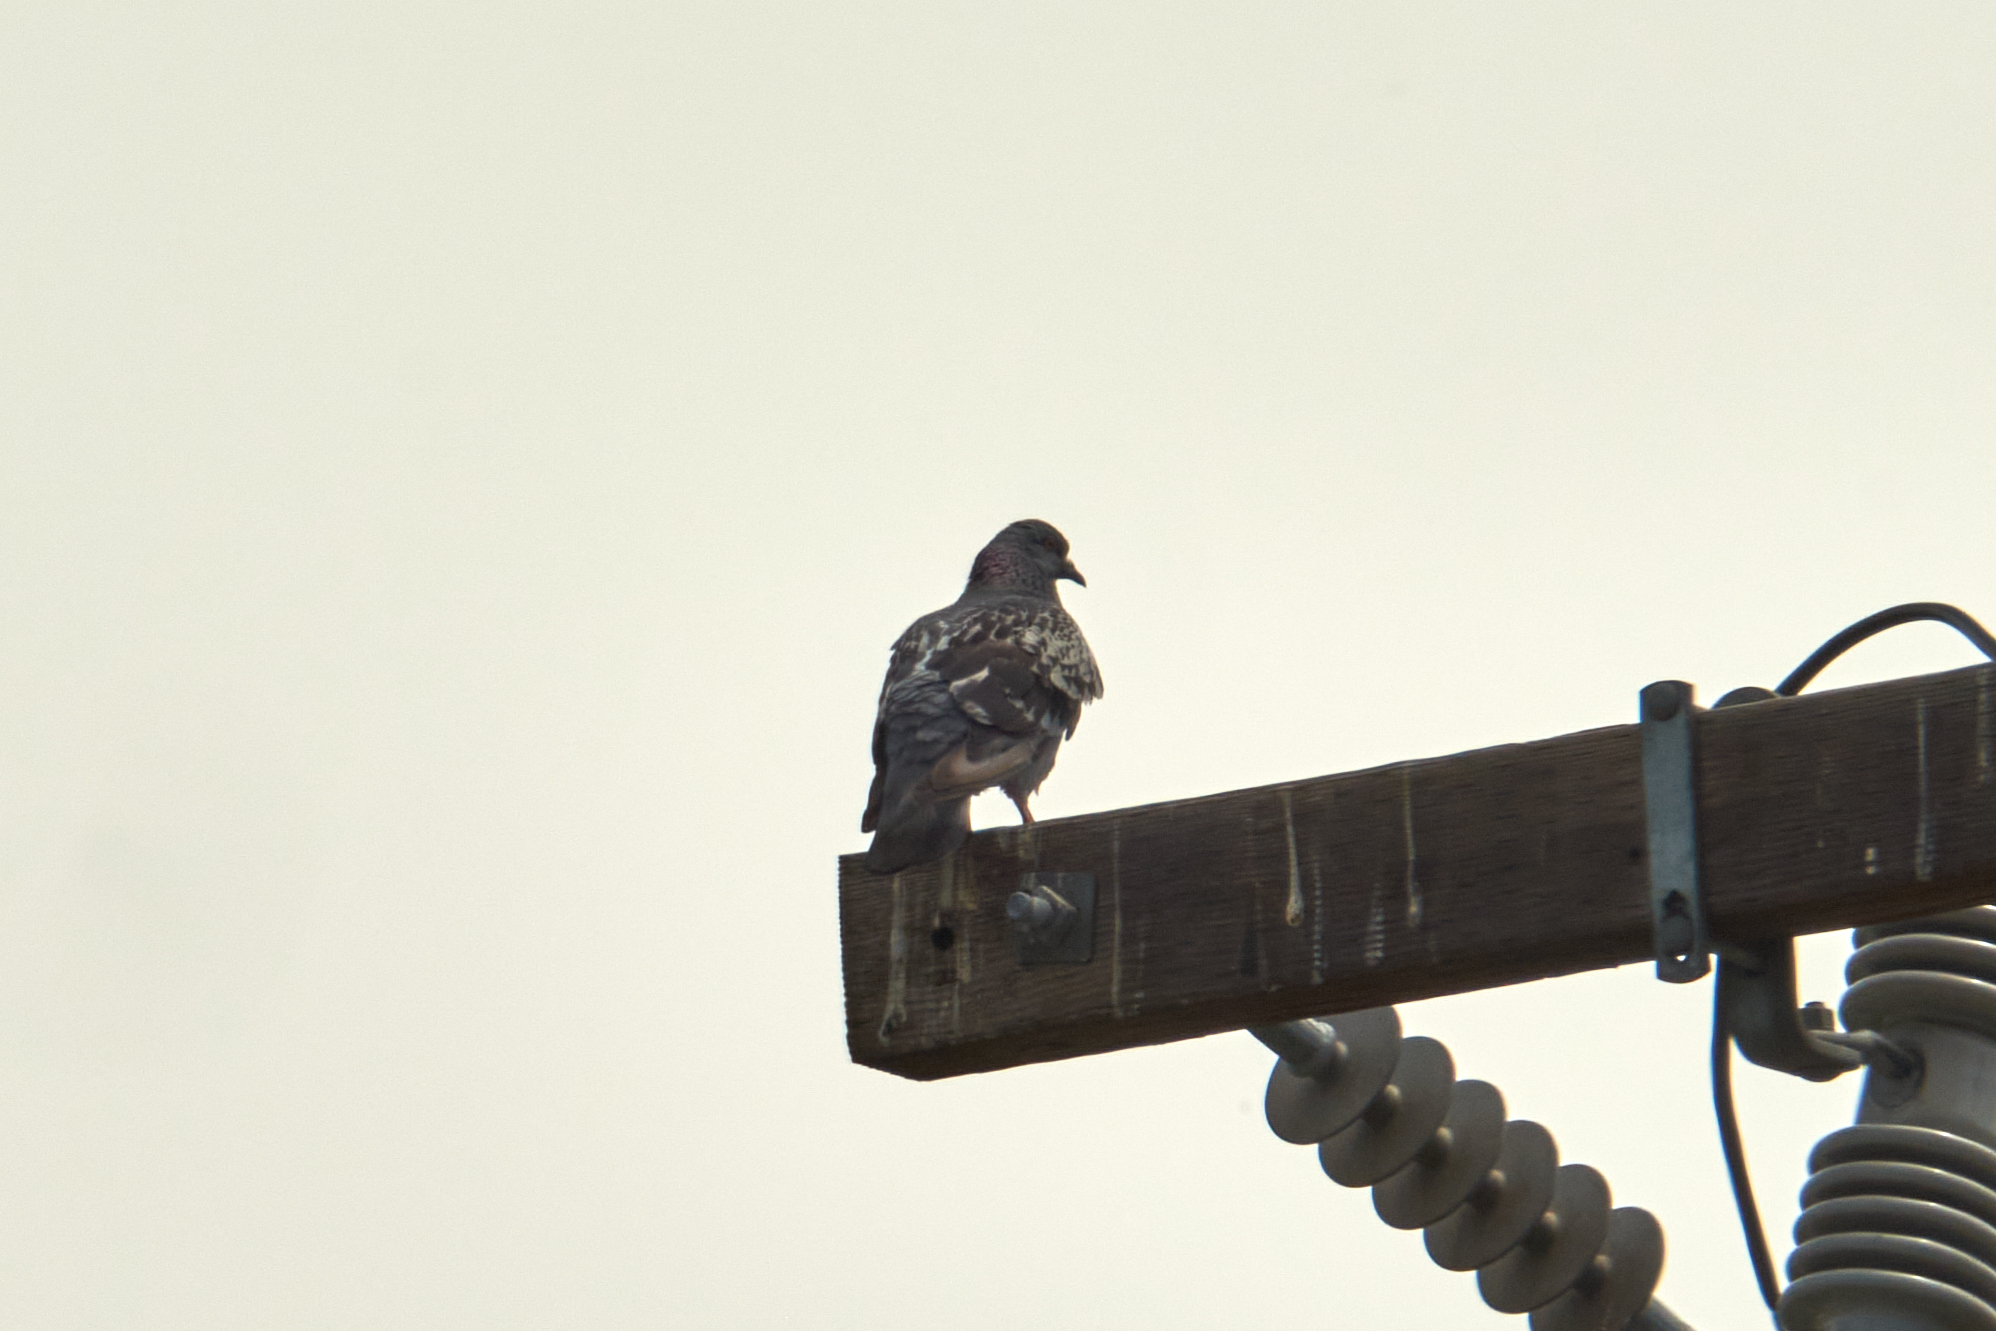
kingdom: Animalia
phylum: Chordata
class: Aves
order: Columbiformes
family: Columbidae
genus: Columba
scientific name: Columba livia
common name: Rock pigeon
